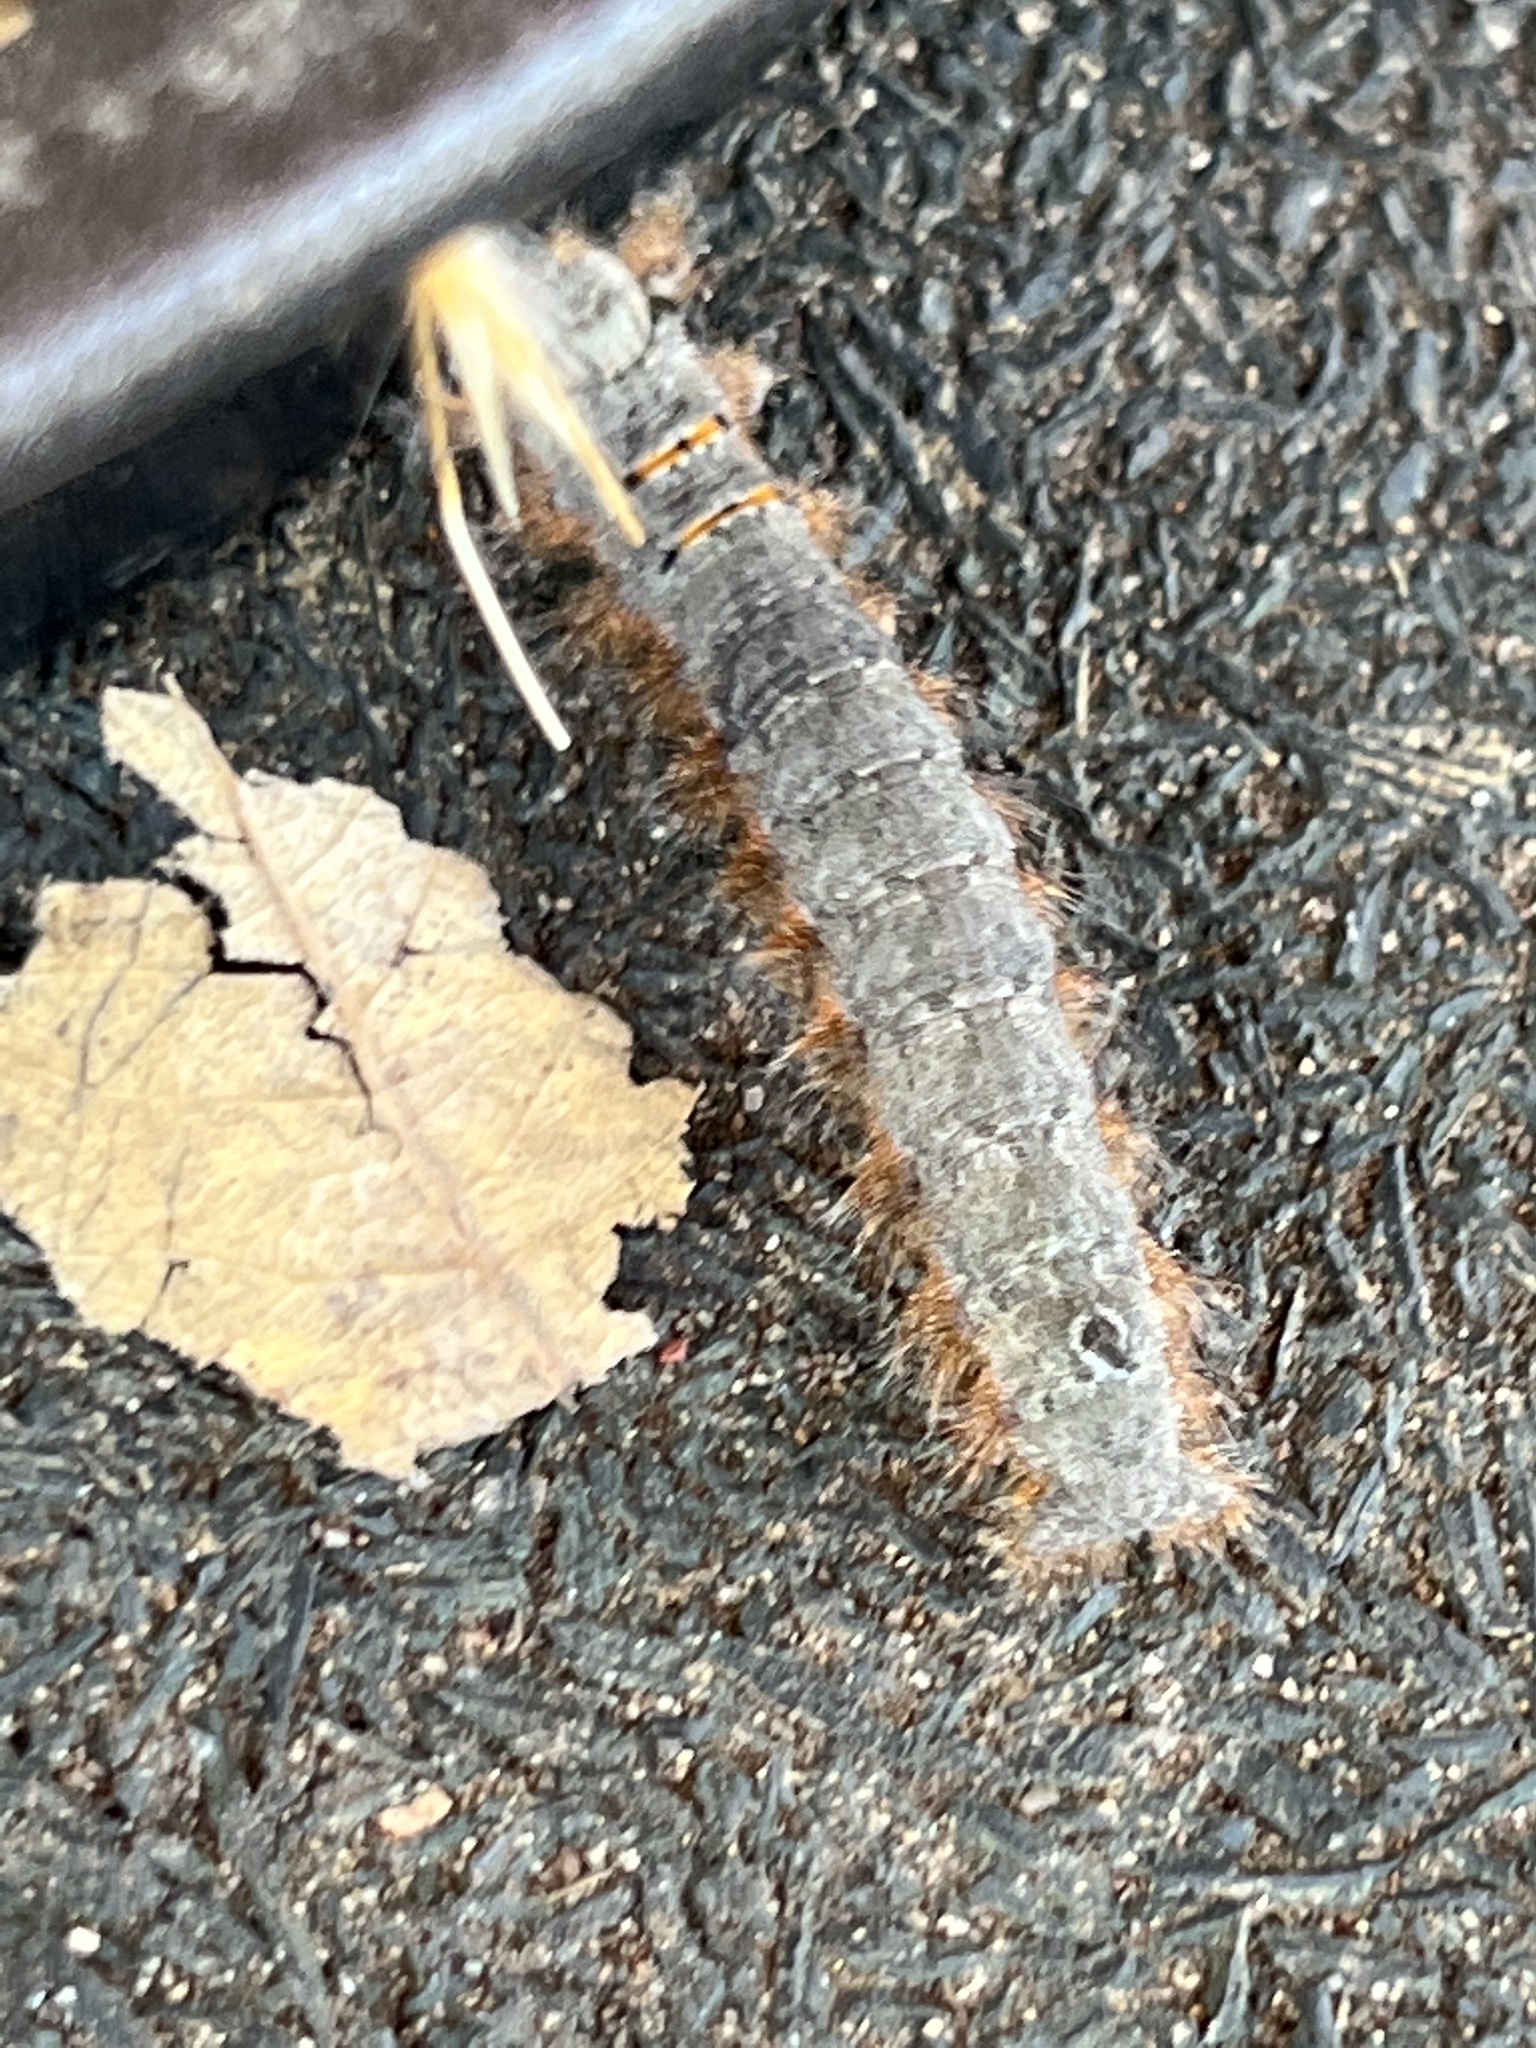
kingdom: Animalia
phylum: Arthropoda
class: Insecta
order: Lepidoptera
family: Lasiocampidae
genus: Phyllodesma
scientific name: Phyllodesma americana
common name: American lappet moth
